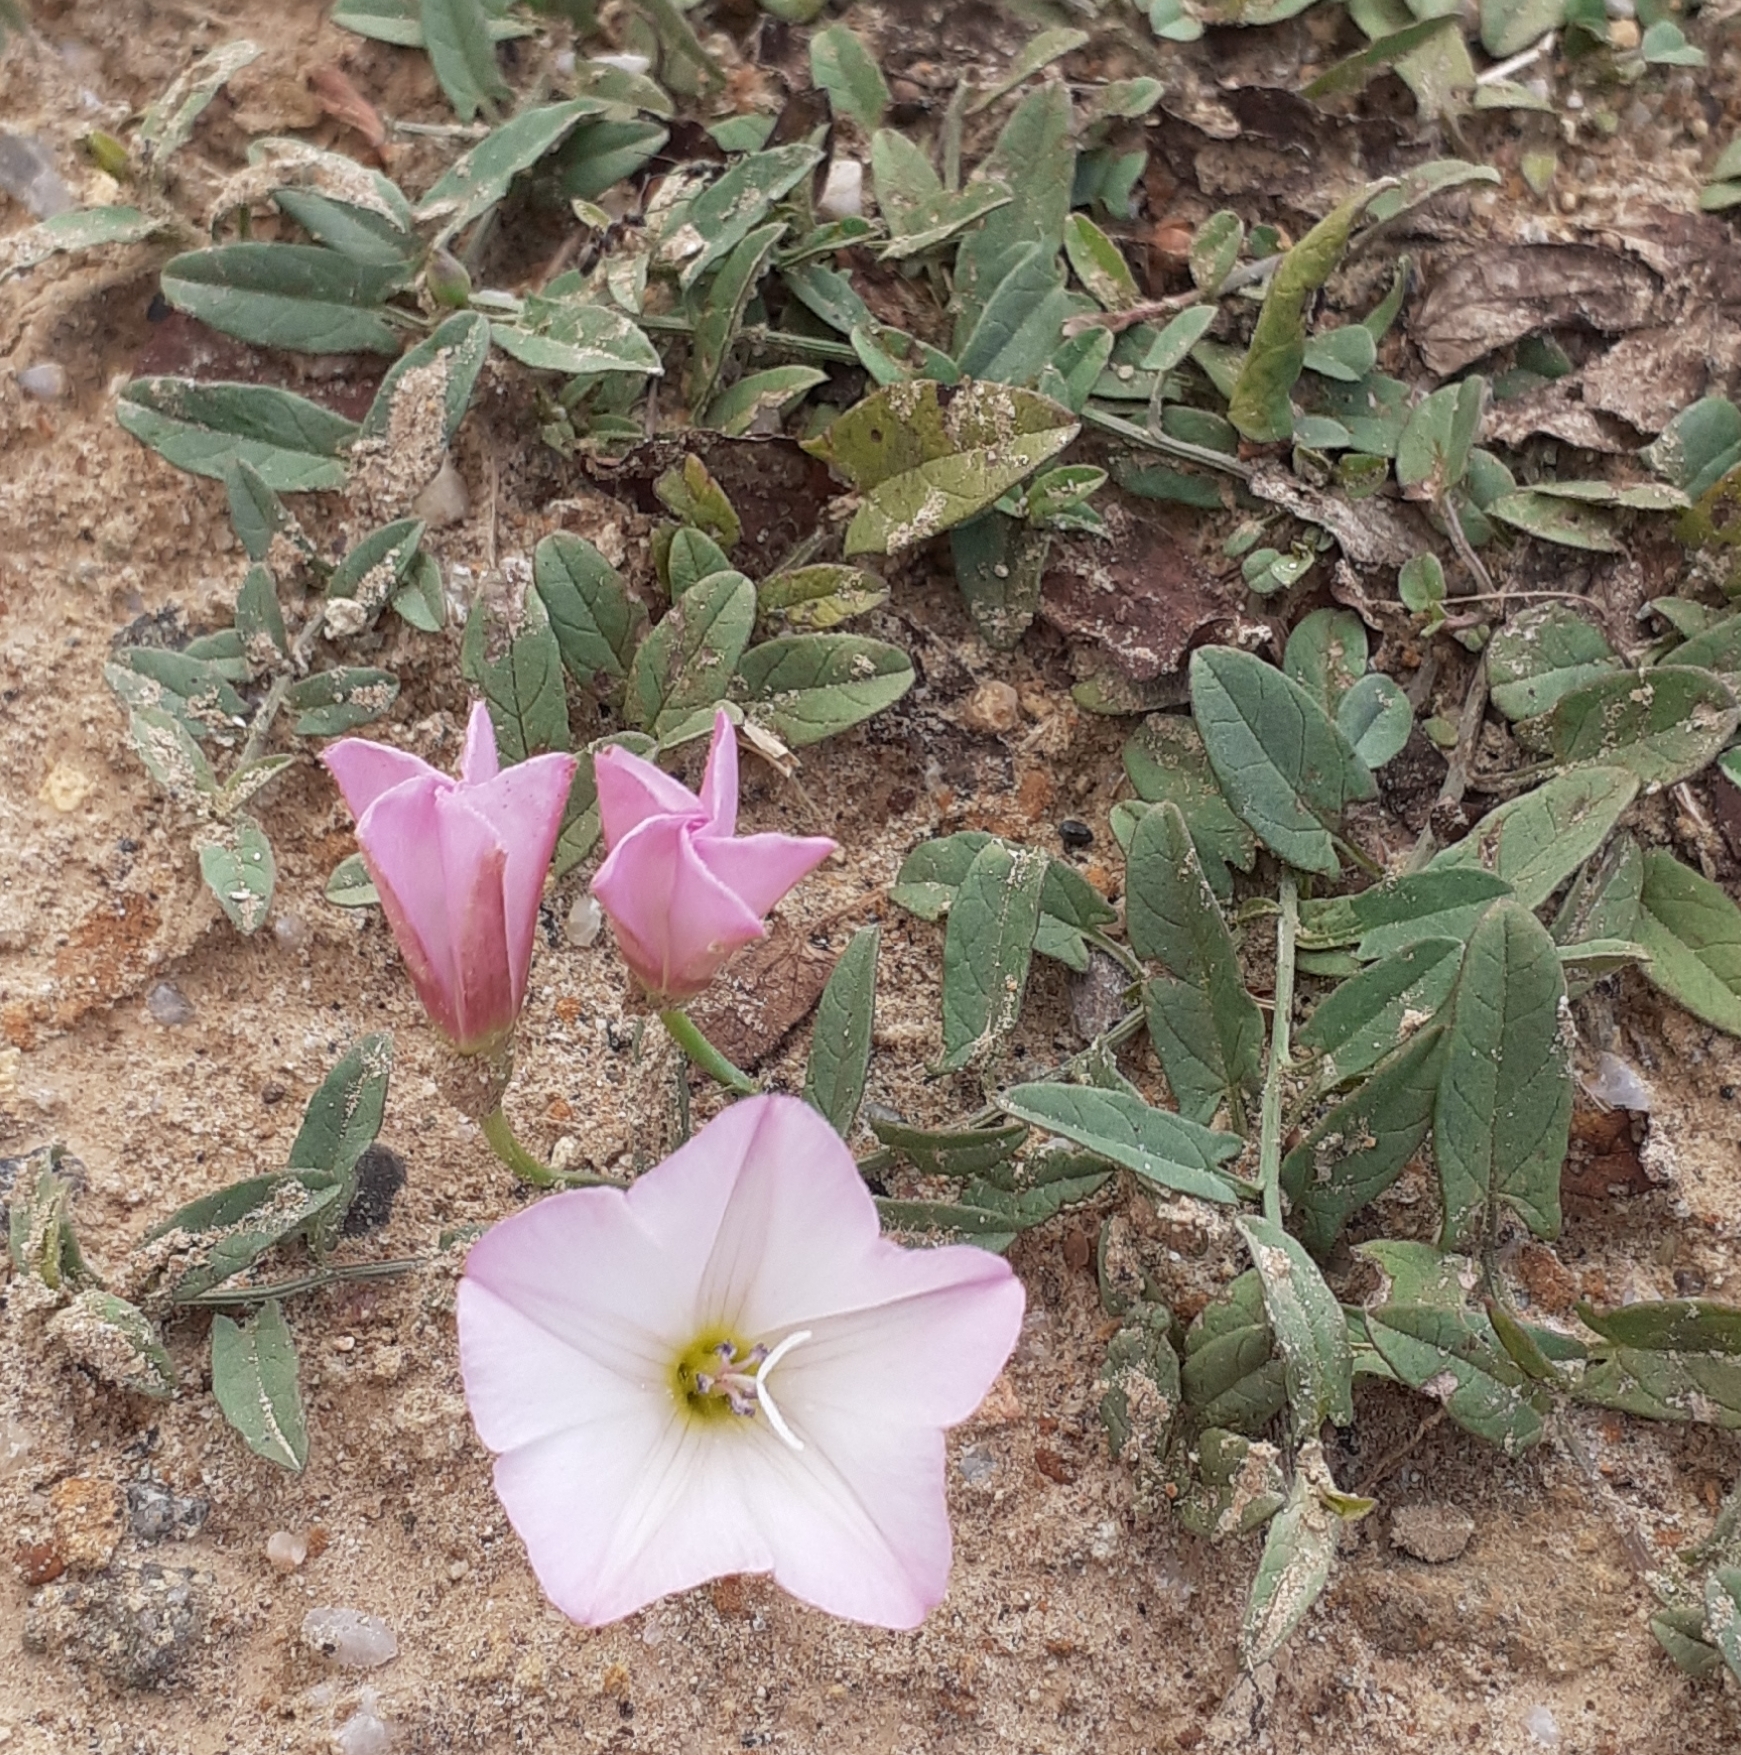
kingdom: Plantae
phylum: Tracheophyta
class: Magnoliopsida
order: Solanales
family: Convolvulaceae
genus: Convolvulus
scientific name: Convolvulus arvensis
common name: Field bindweed
